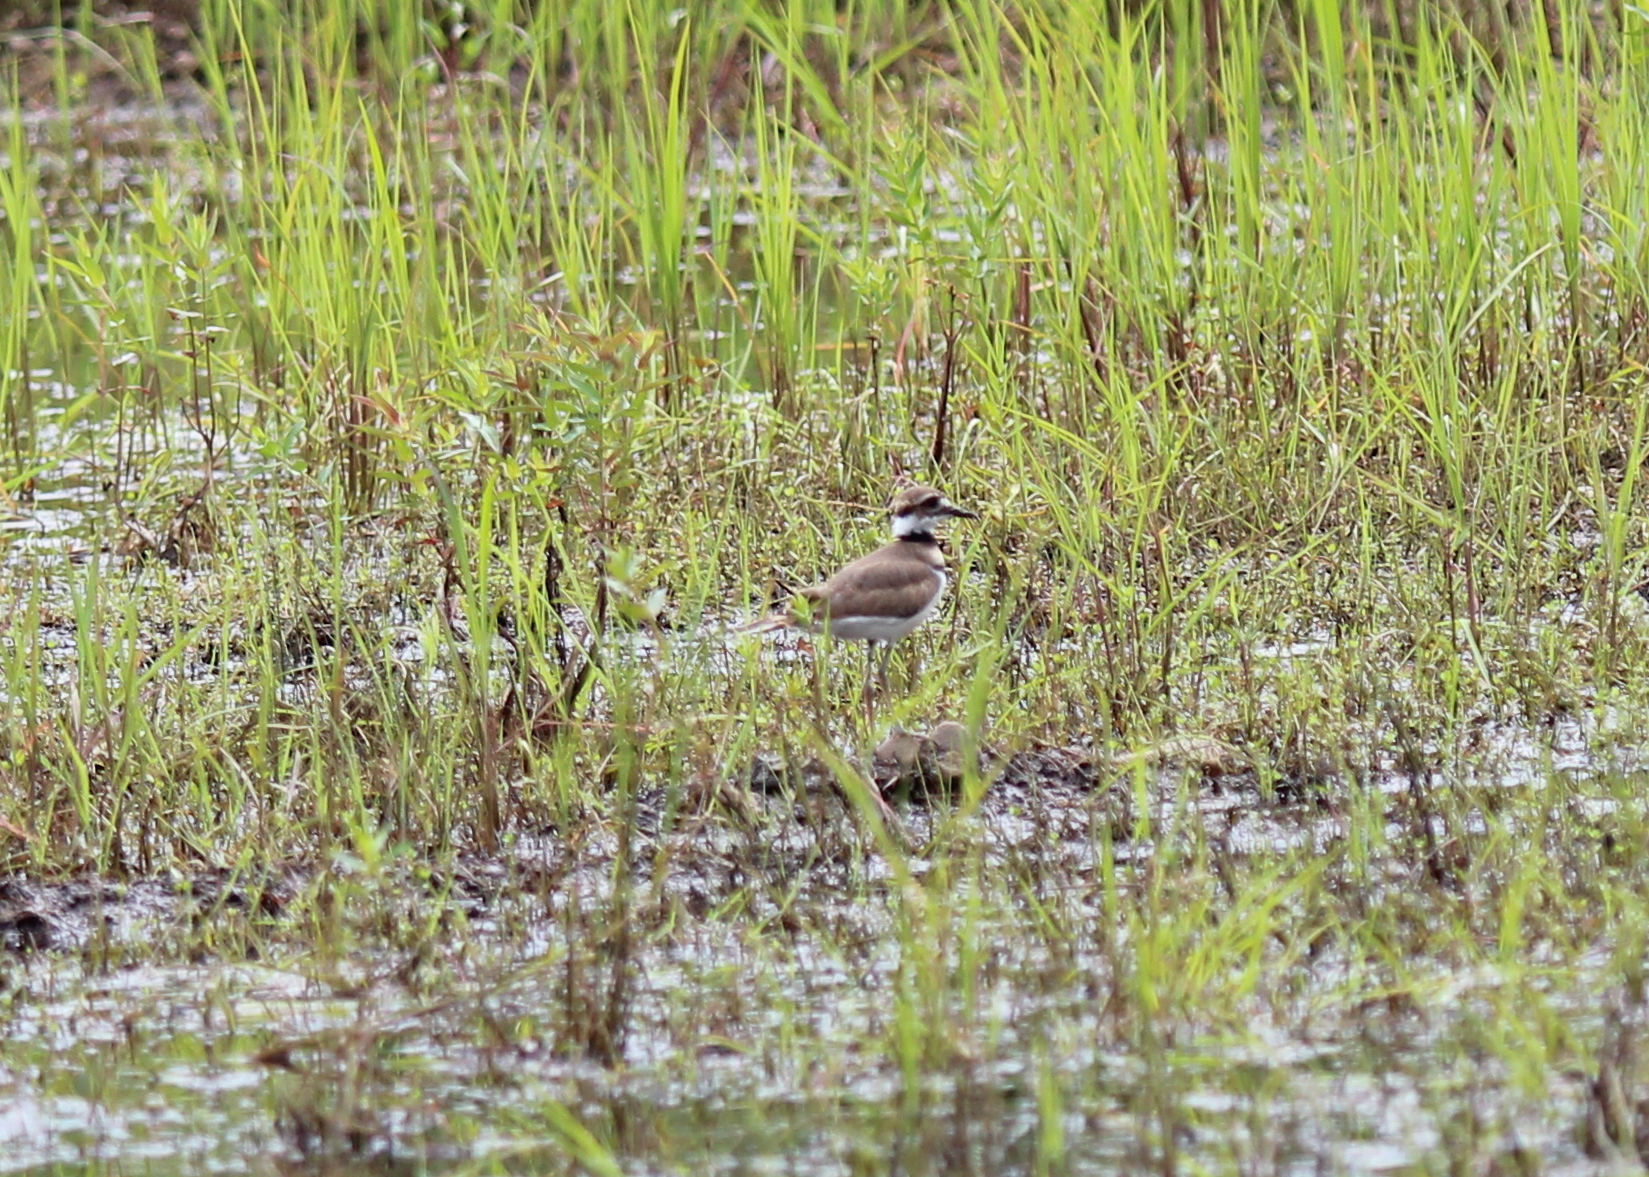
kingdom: Animalia
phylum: Chordata
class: Aves
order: Charadriiformes
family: Charadriidae
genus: Charadrius
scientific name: Charadrius vociferus
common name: Killdeer
